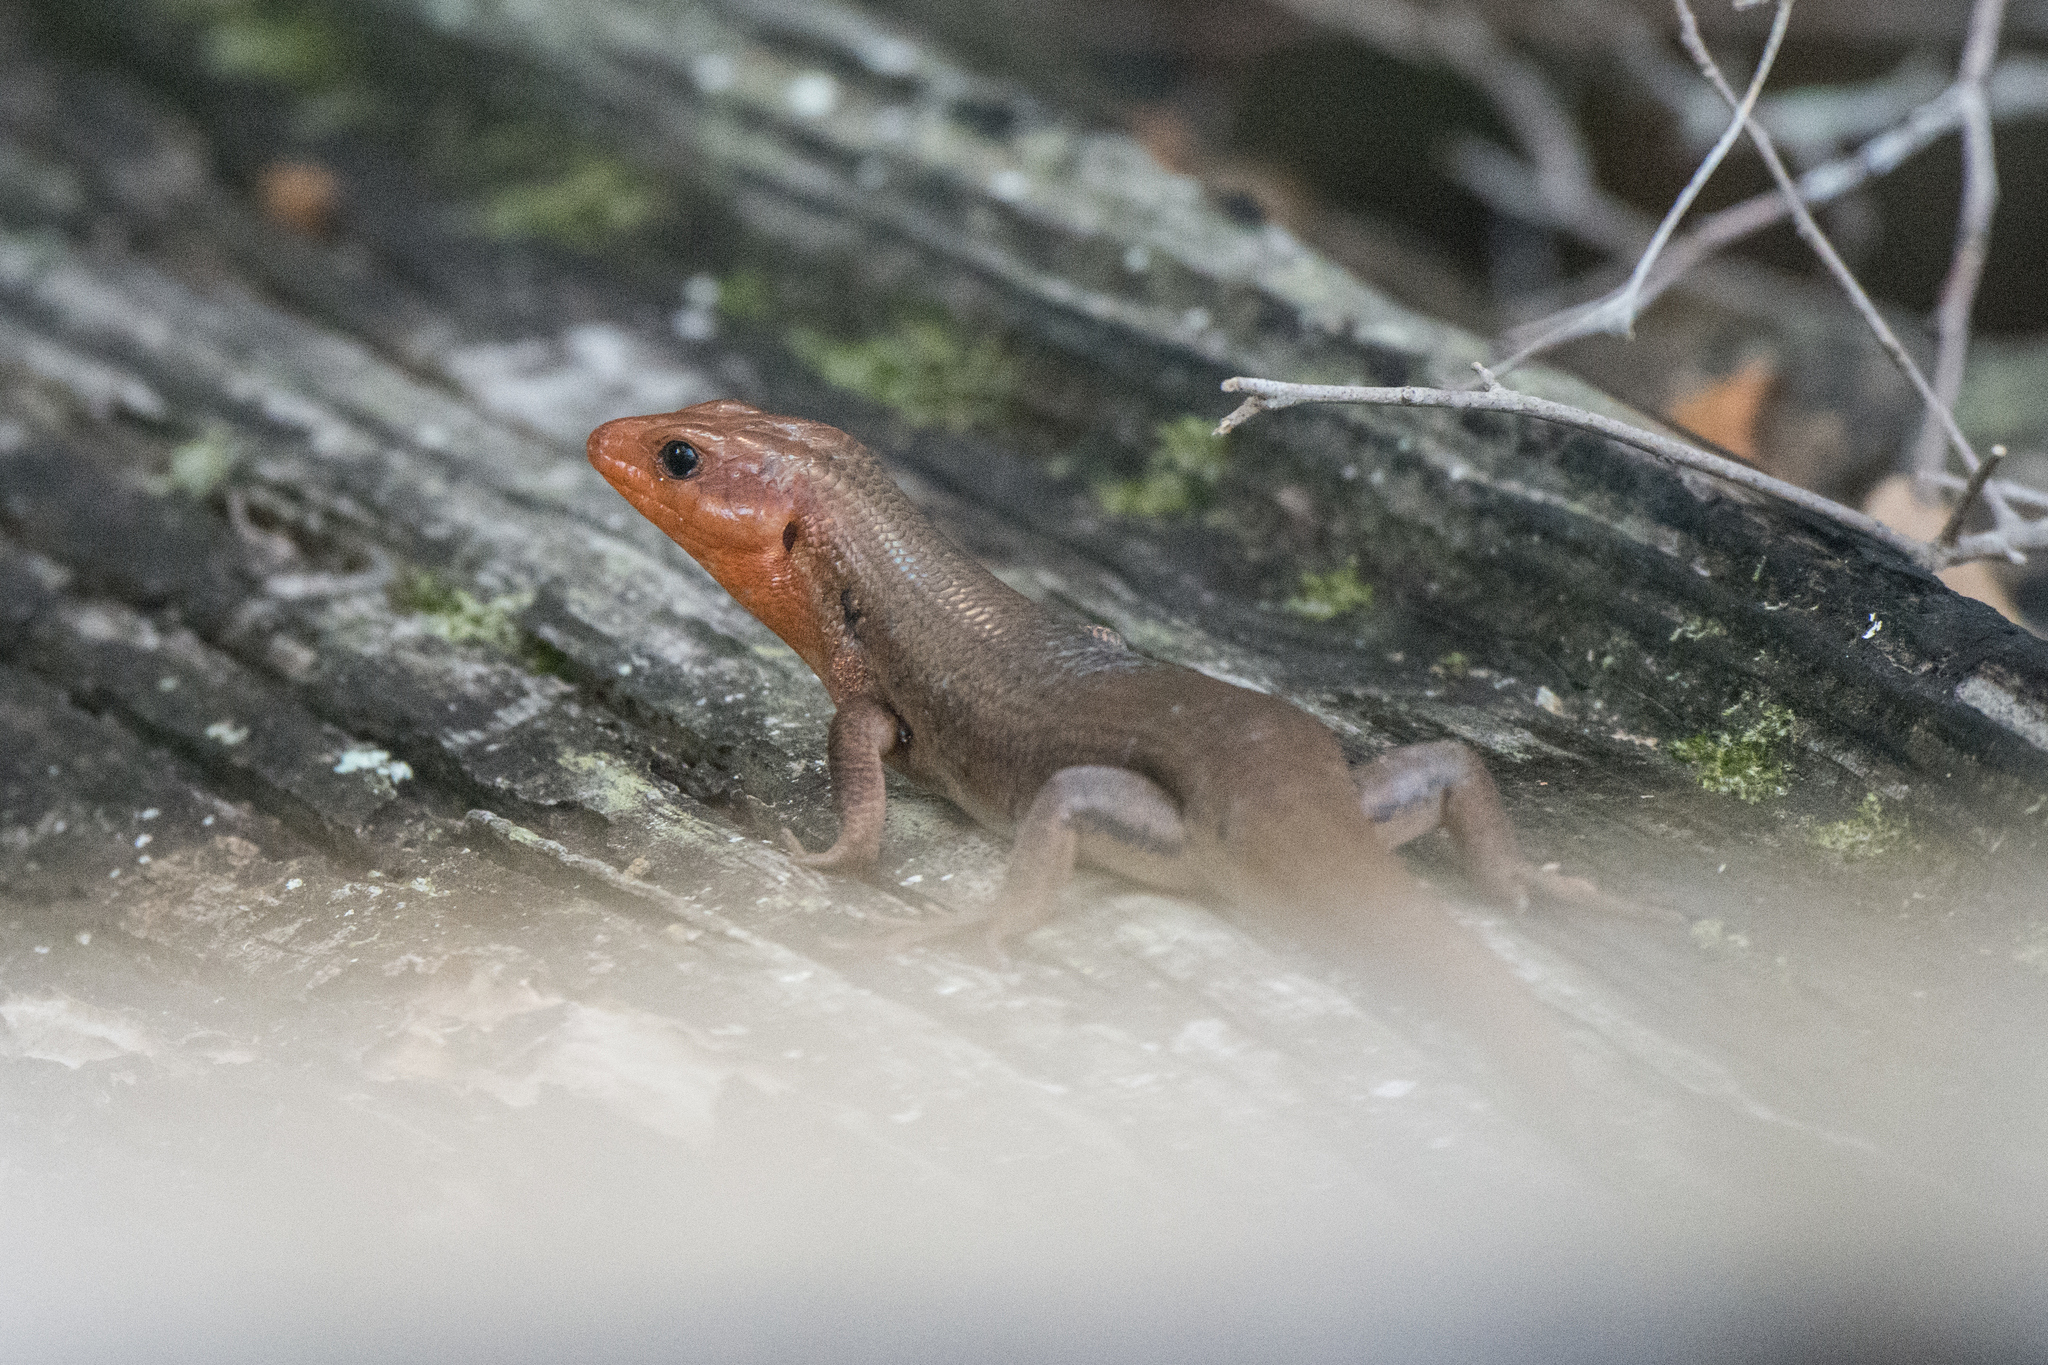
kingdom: Animalia
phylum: Chordata
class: Squamata
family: Scincidae
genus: Plestiodon
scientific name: Plestiodon laticeps
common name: Broadhead skink
